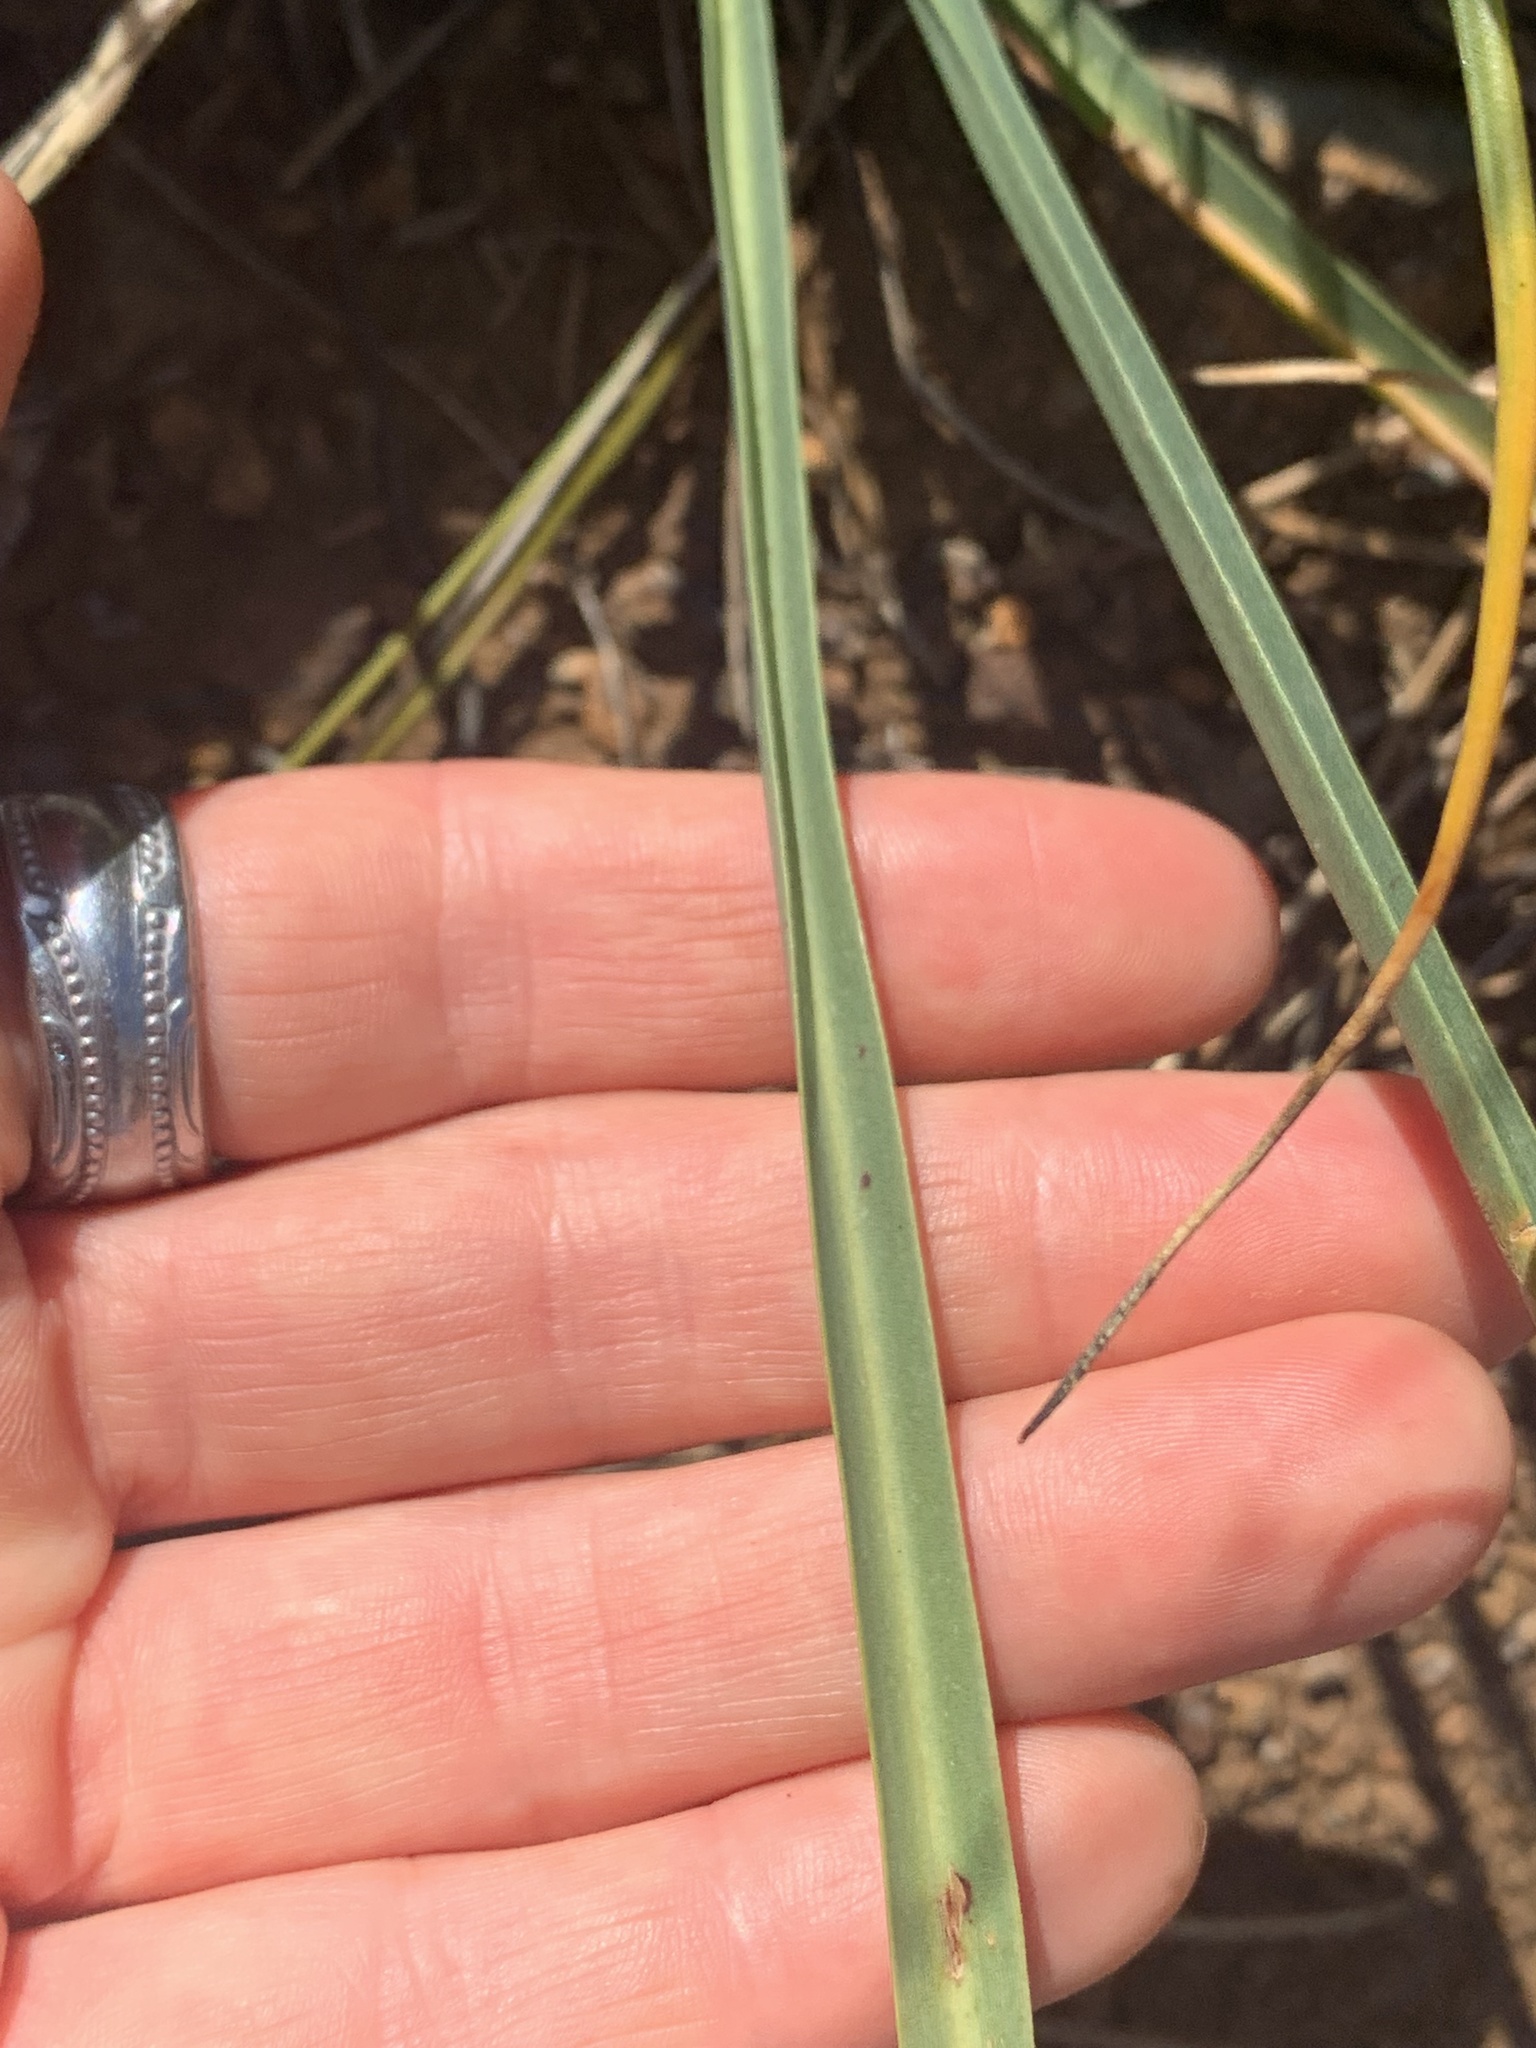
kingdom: Plantae
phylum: Tracheophyta
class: Liliopsida
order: Asparagales
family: Asparagaceae
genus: Hastingsia
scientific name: Hastingsia serpentinicola
